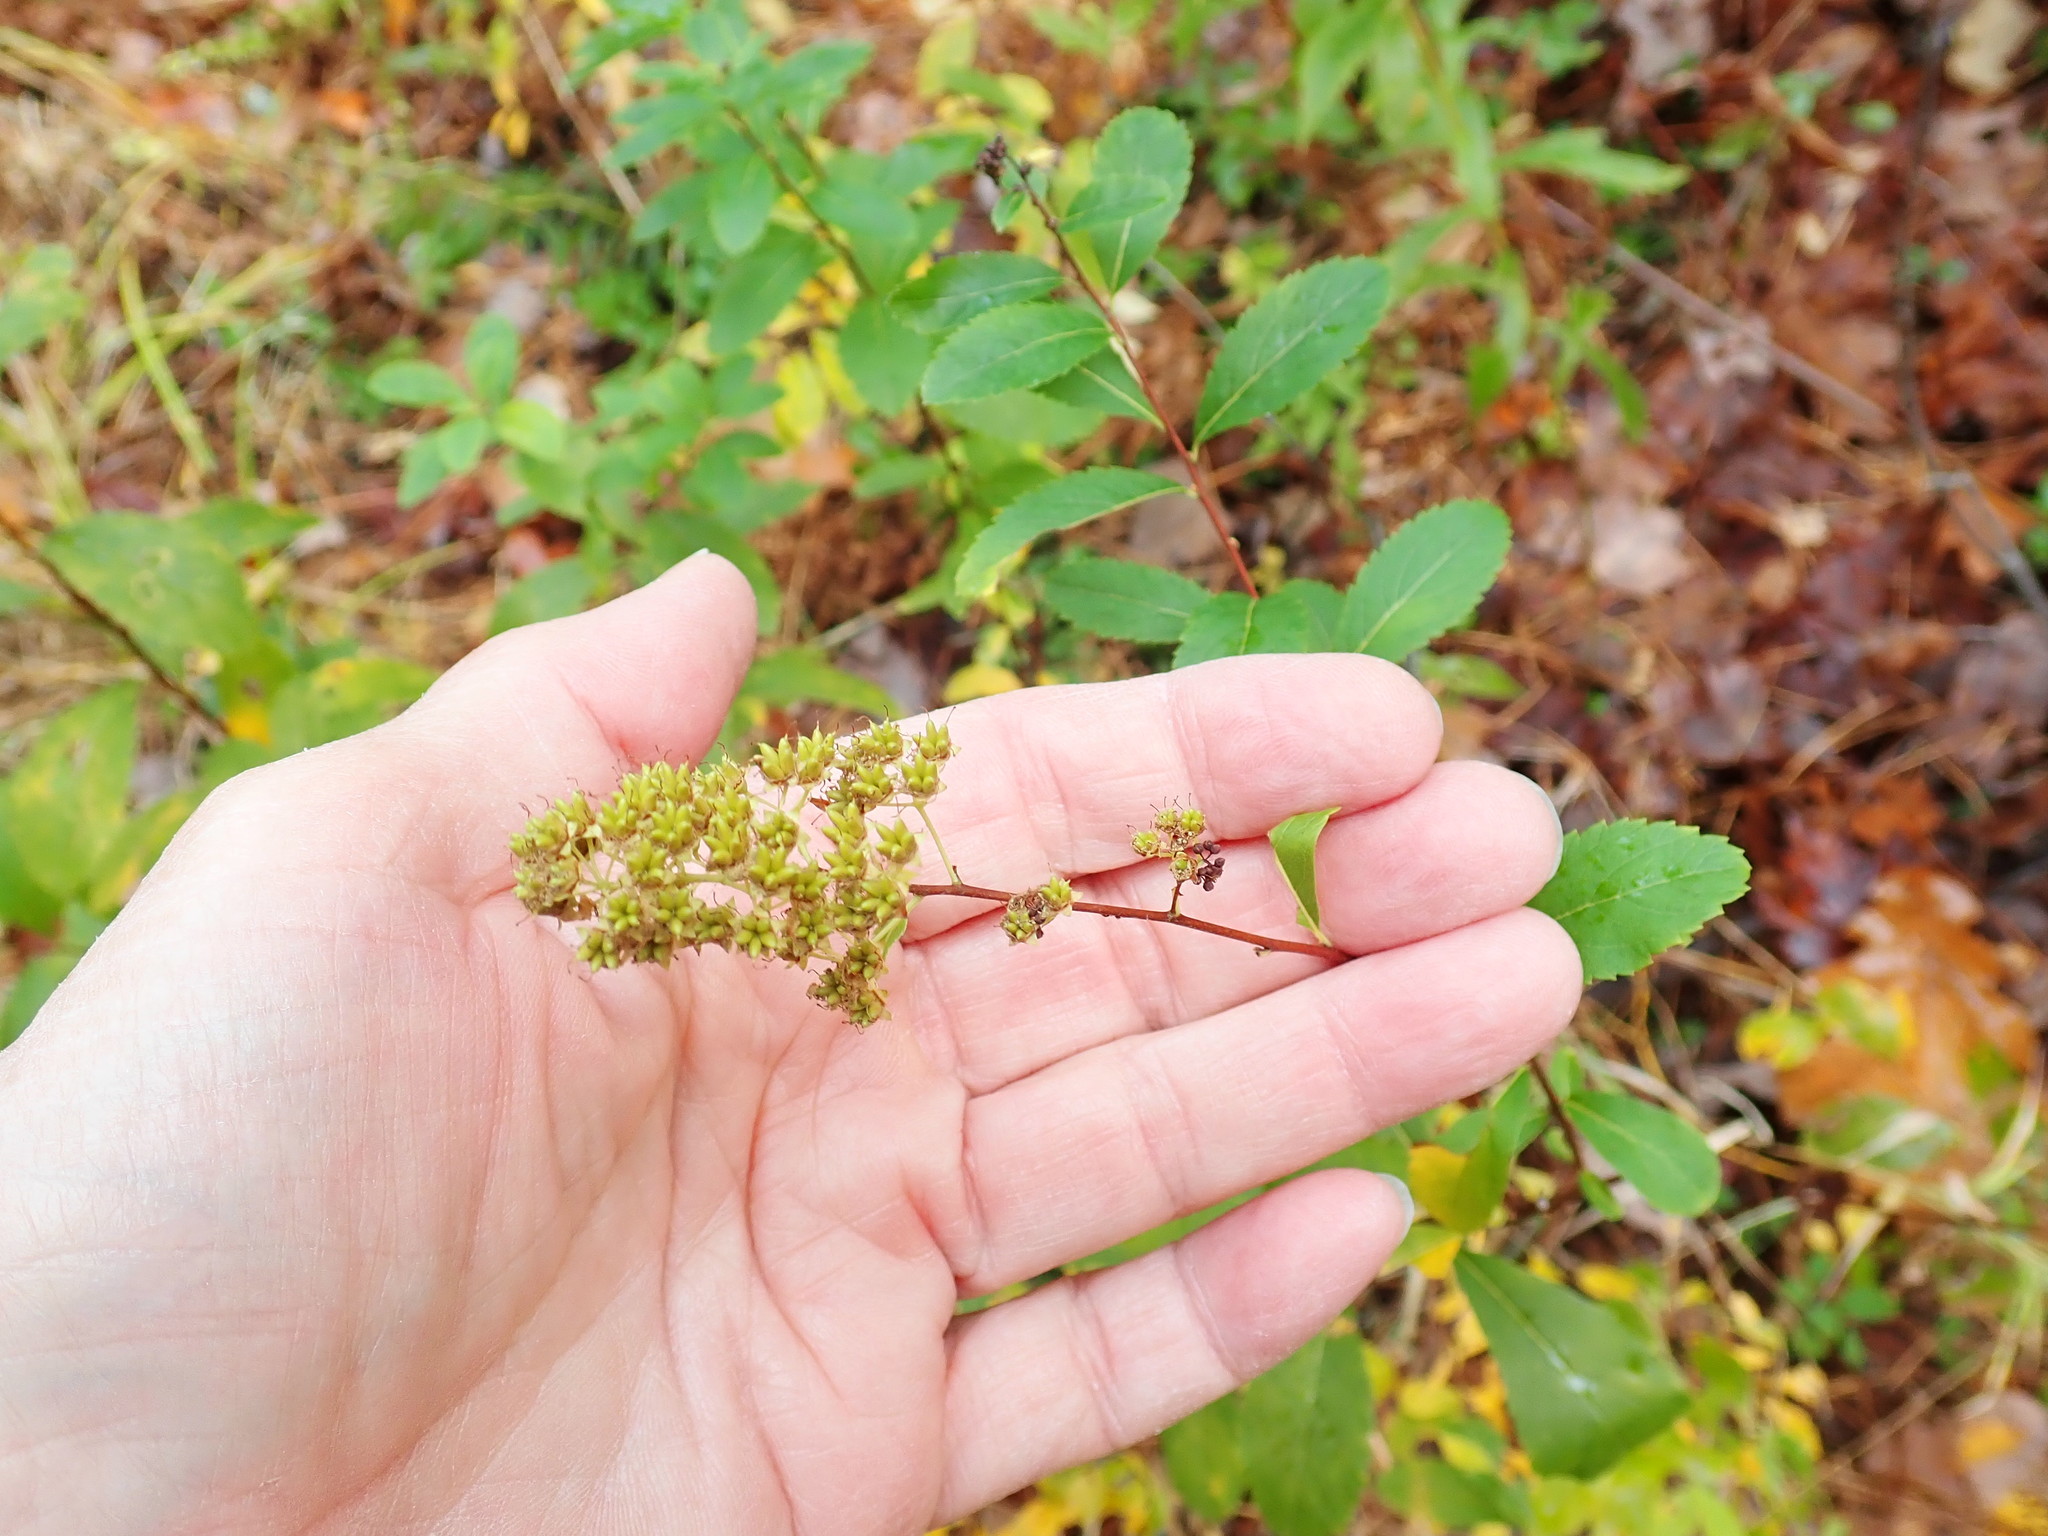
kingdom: Plantae
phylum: Tracheophyta
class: Magnoliopsida
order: Rosales
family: Rosaceae
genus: Spiraea
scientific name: Spiraea alba
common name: Pale bridewort
